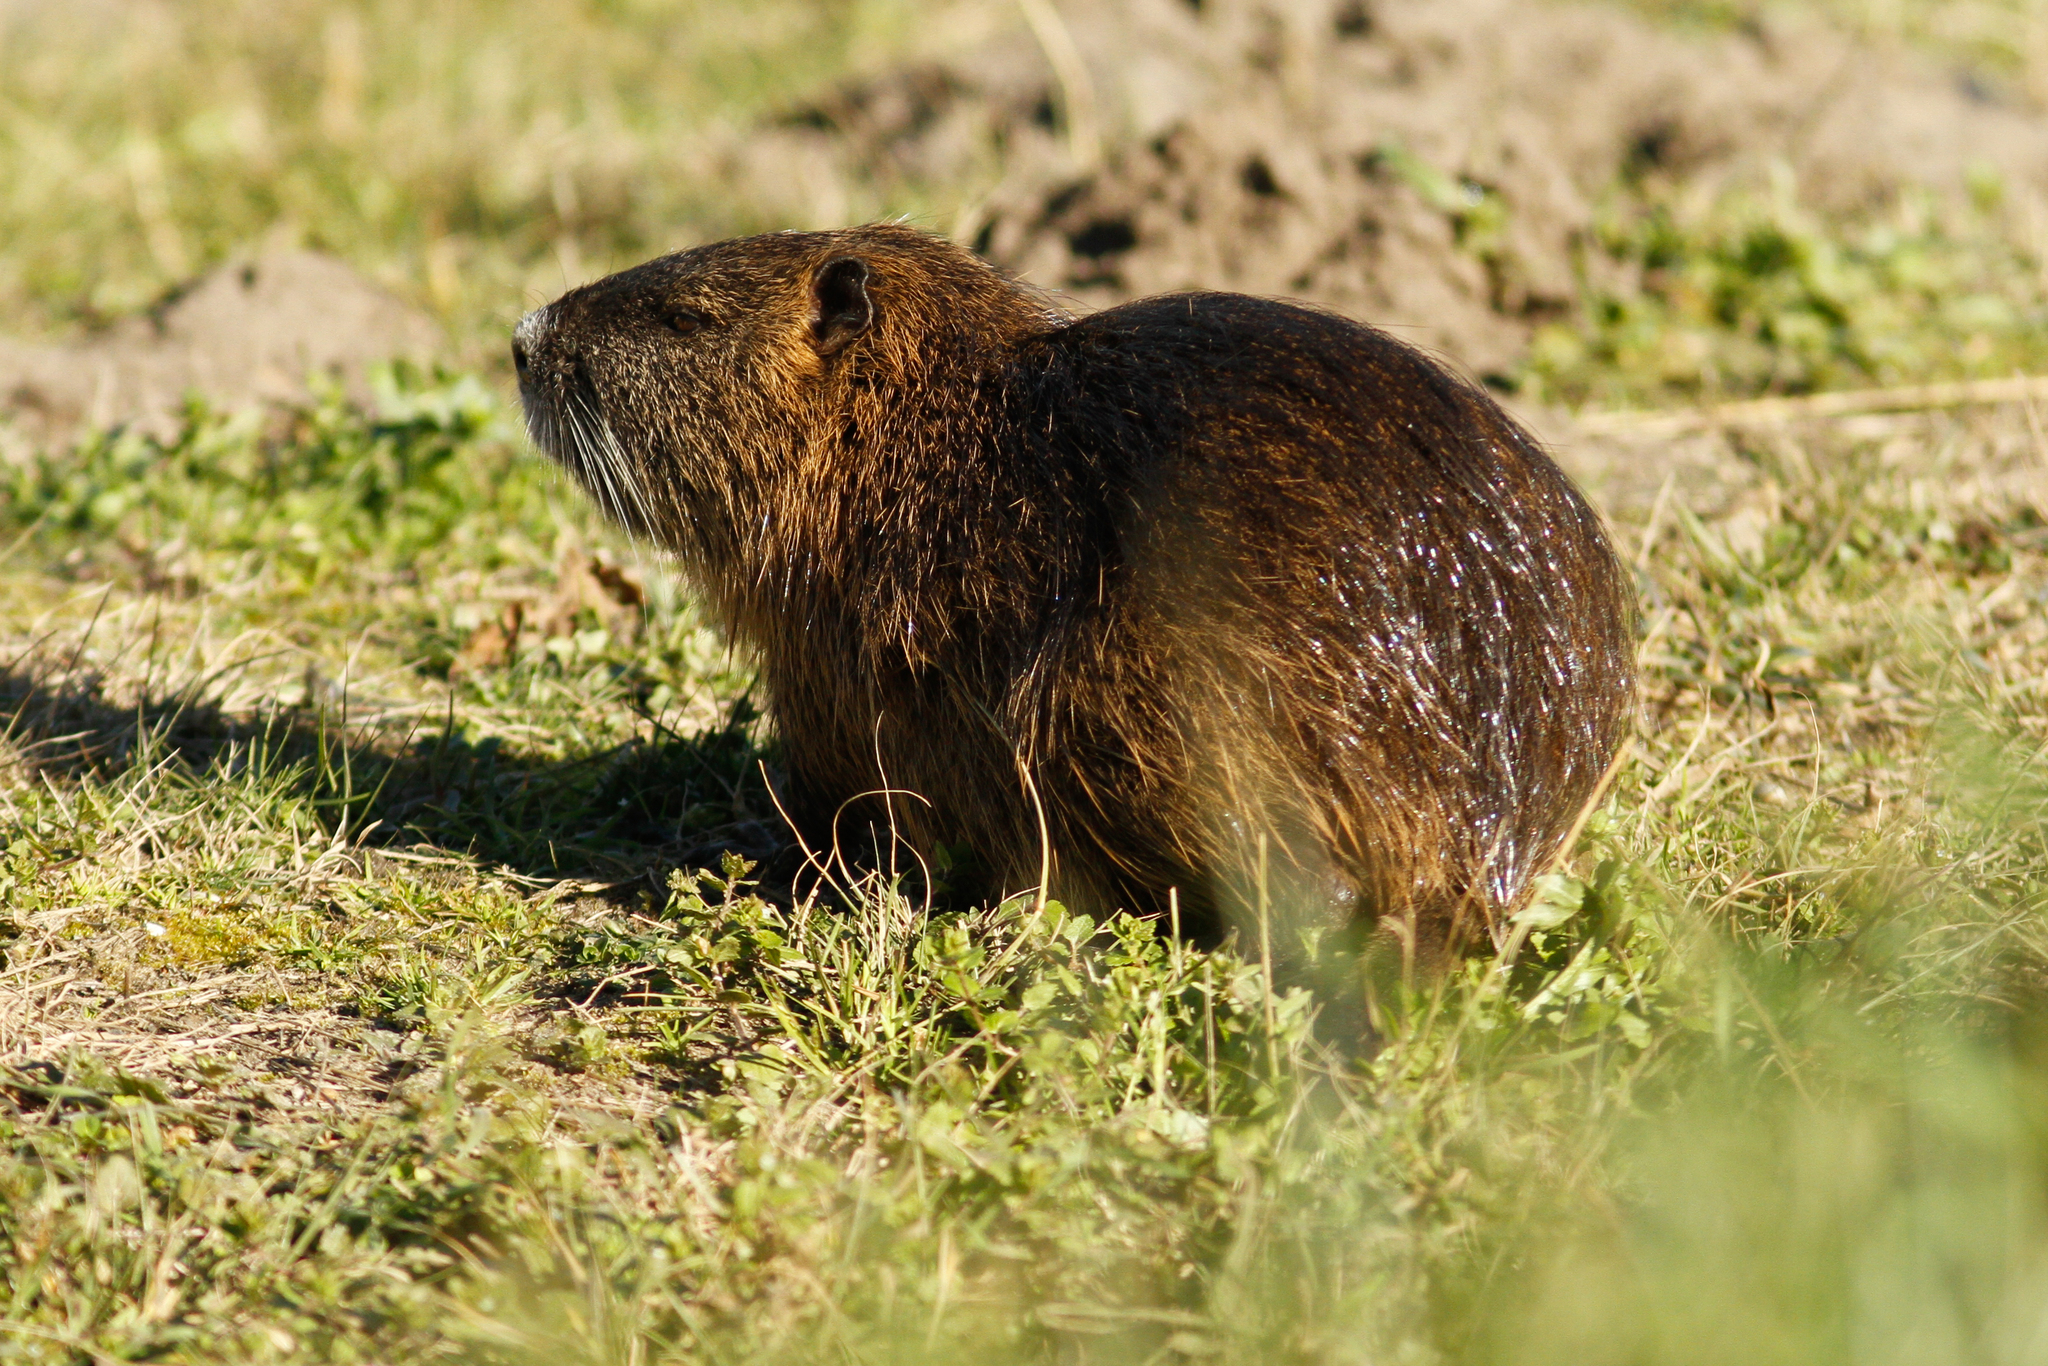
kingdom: Animalia
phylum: Chordata
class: Mammalia
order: Rodentia
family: Myocastoridae
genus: Myocastor
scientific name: Myocastor coypus
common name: Coypu
